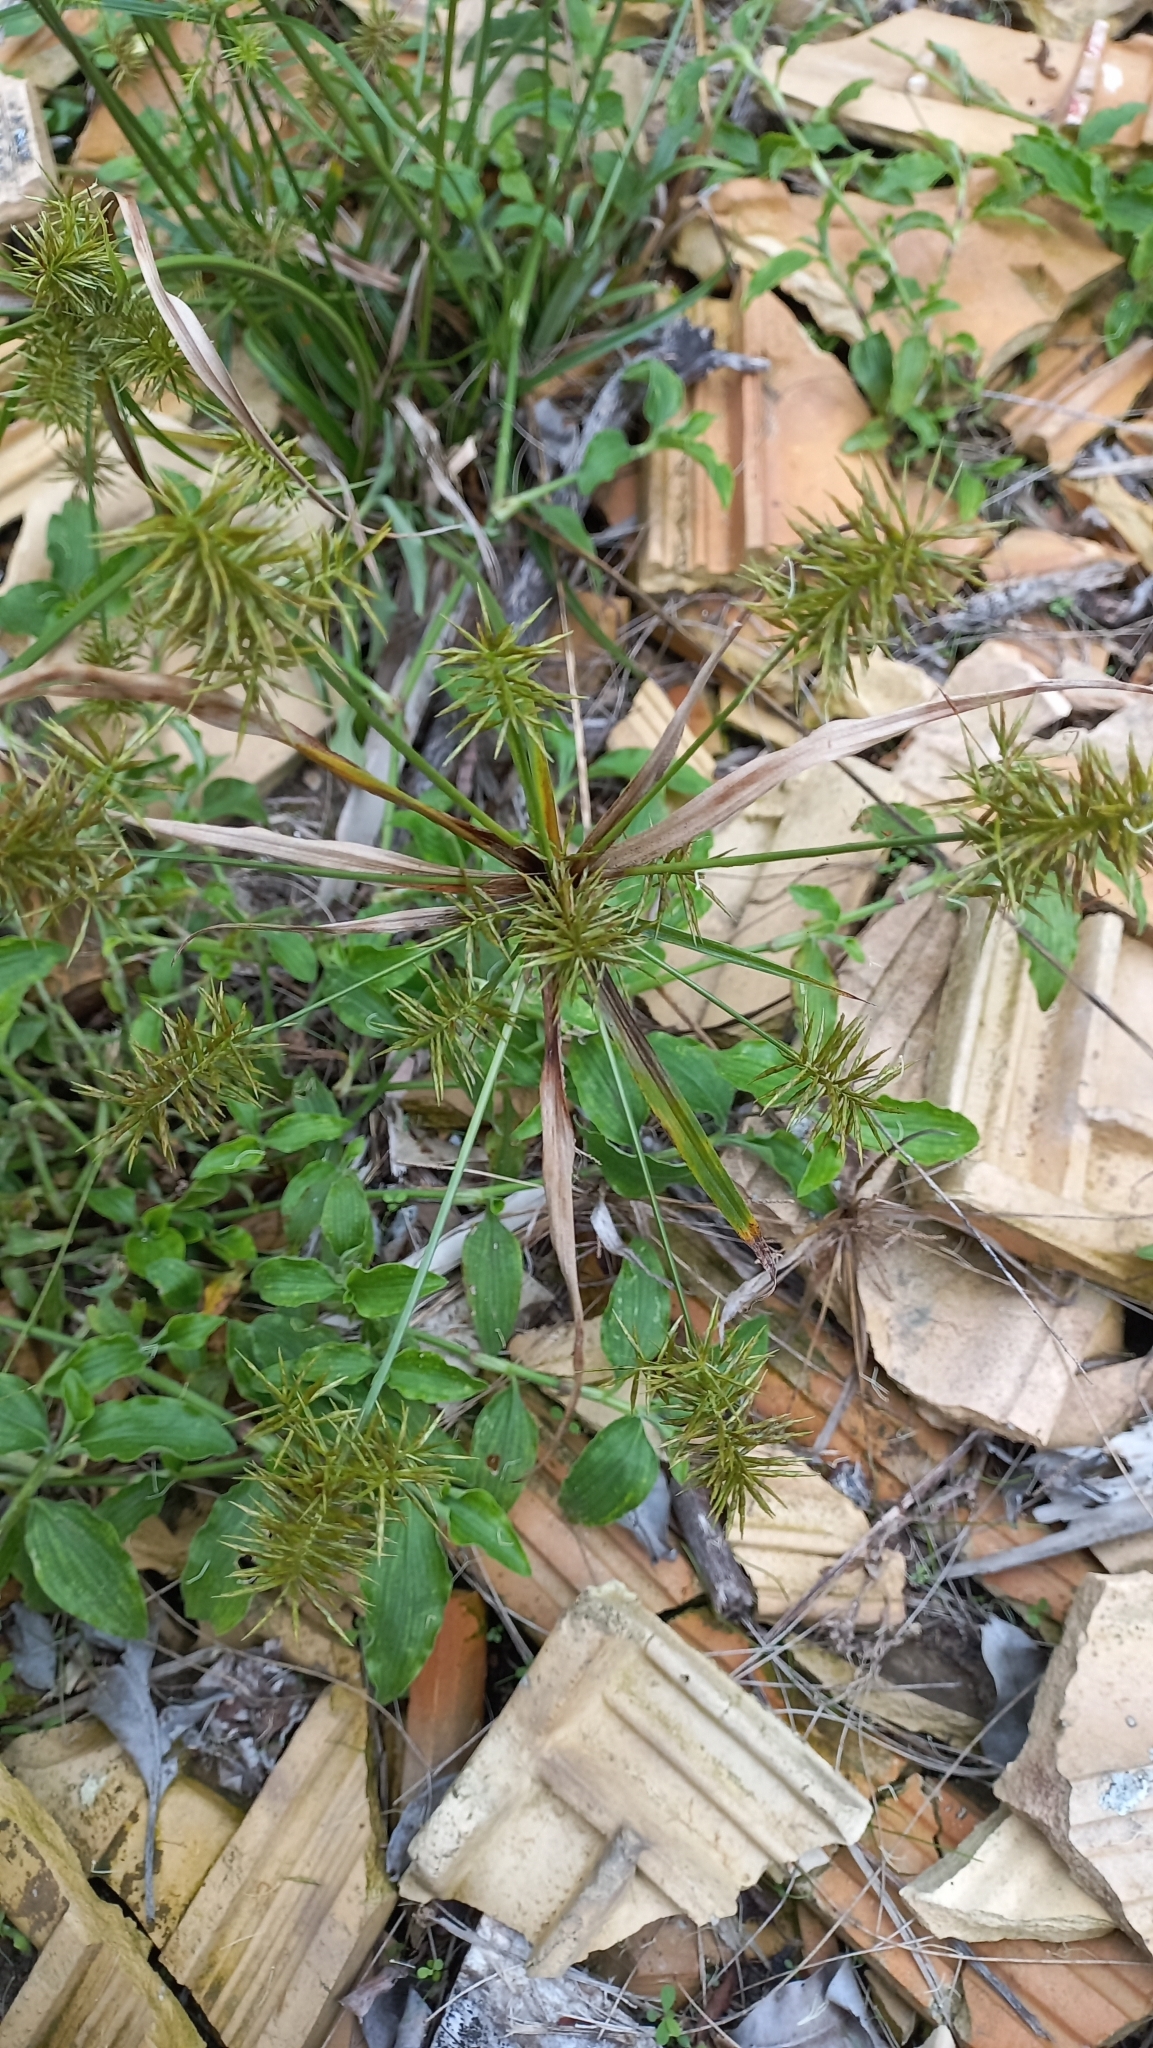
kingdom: Plantae
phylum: Tracheophyta
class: Liliopsida
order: Poales
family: Cyperaceae
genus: Cyperus
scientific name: Cyperus odoratus
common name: Fragrant flatsedge
